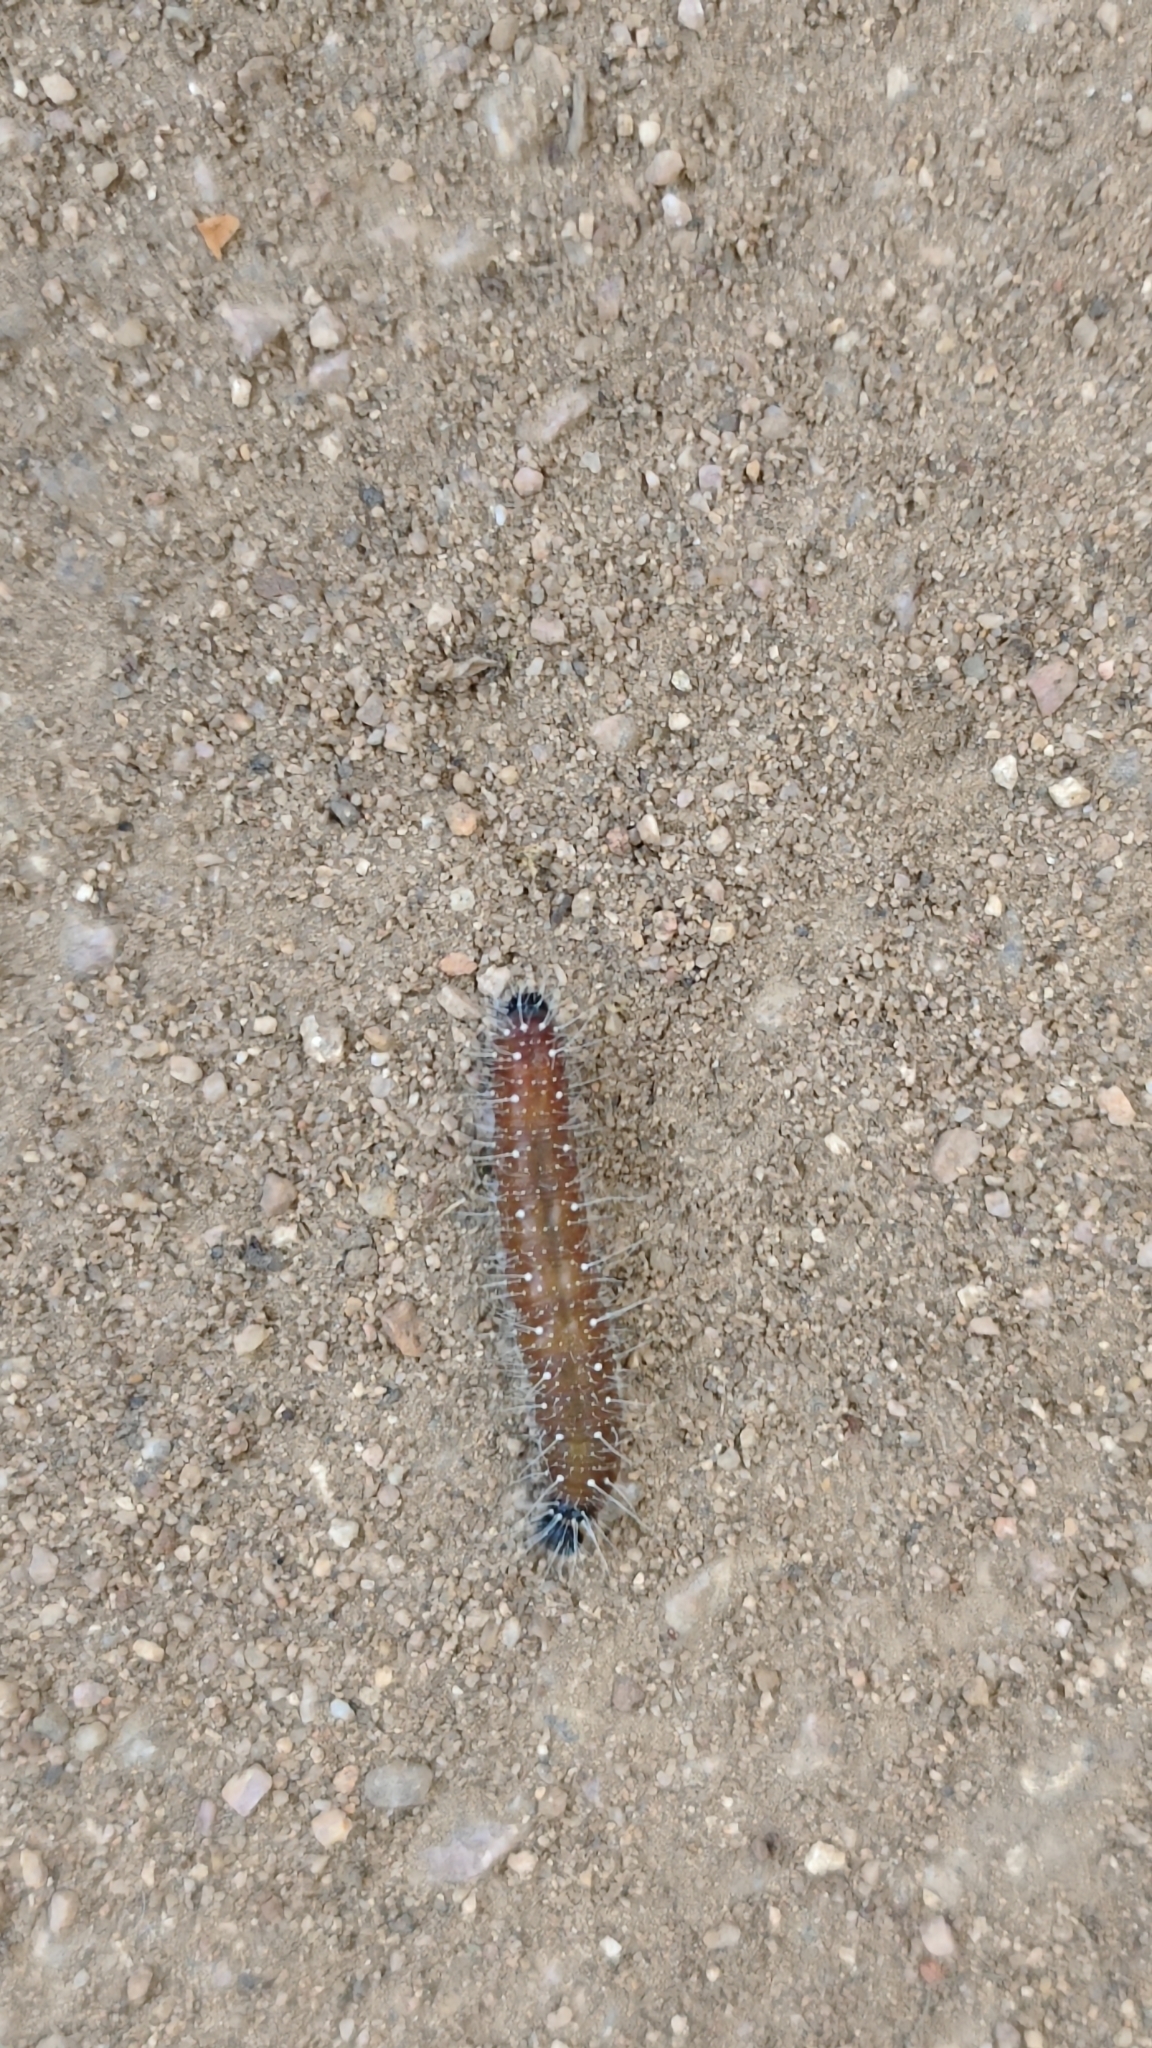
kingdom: Animalia
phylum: Arthropoda
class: Insecta
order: Lepidoptera
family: Pieridae
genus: Delias
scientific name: Delias eucharis
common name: Common jezebel
